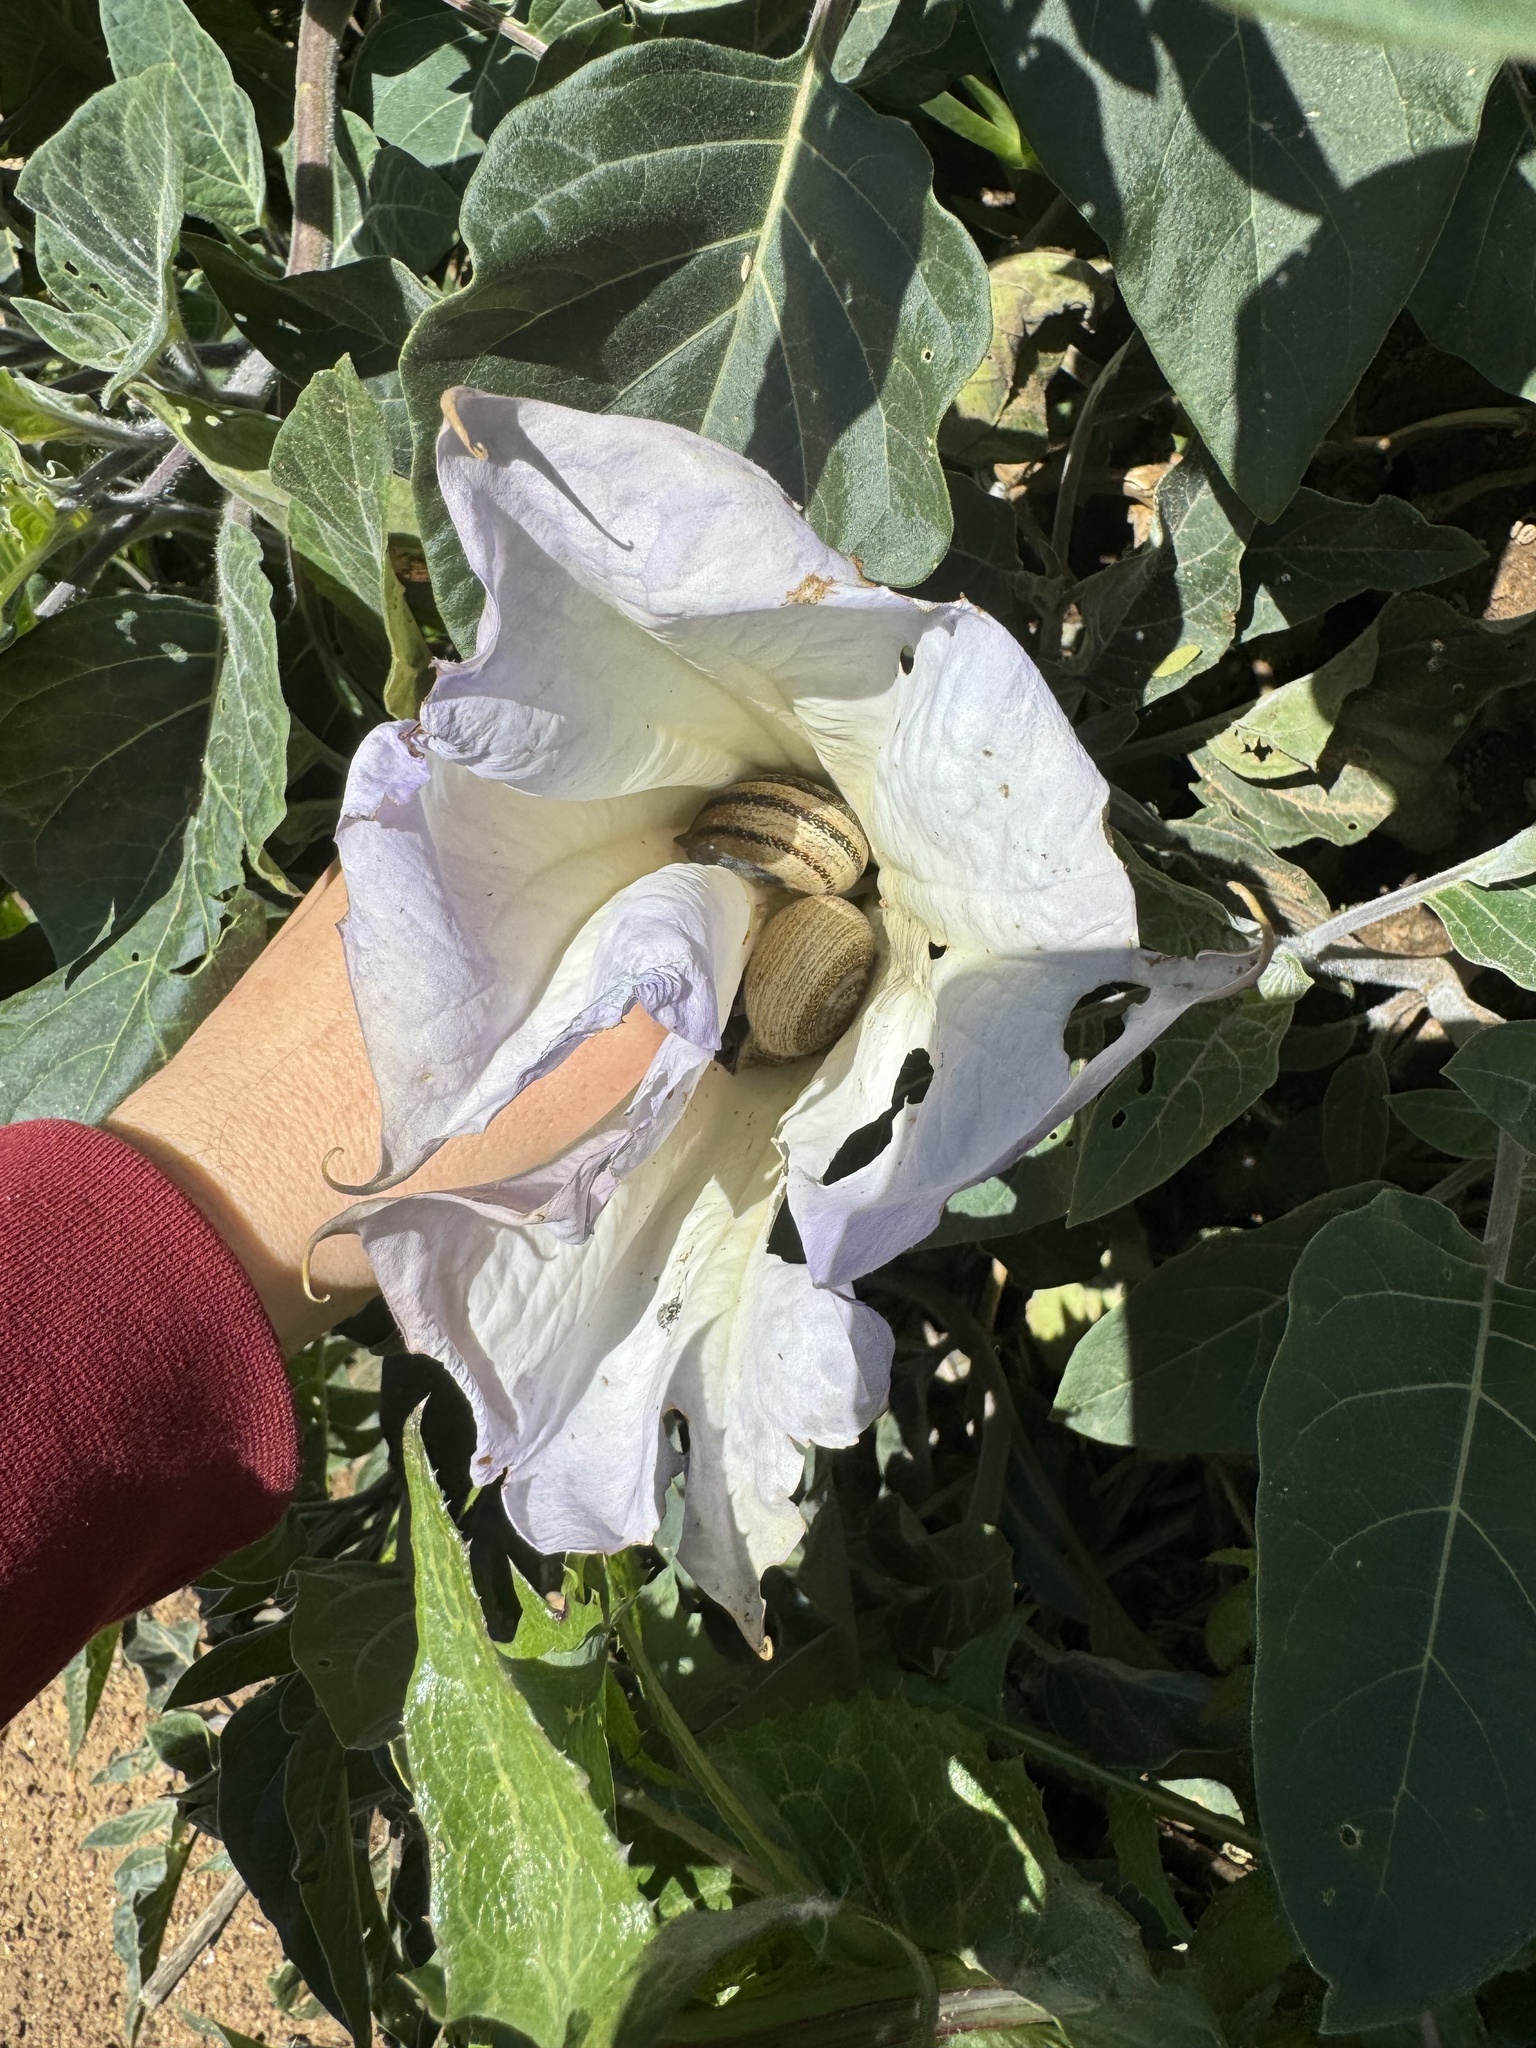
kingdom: Plantae
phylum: Tracheophyta
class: Magnoliopsida
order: Solanales
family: Solanaceae
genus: Datura
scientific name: Datura wrightii
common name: Sacred thorn-apple
